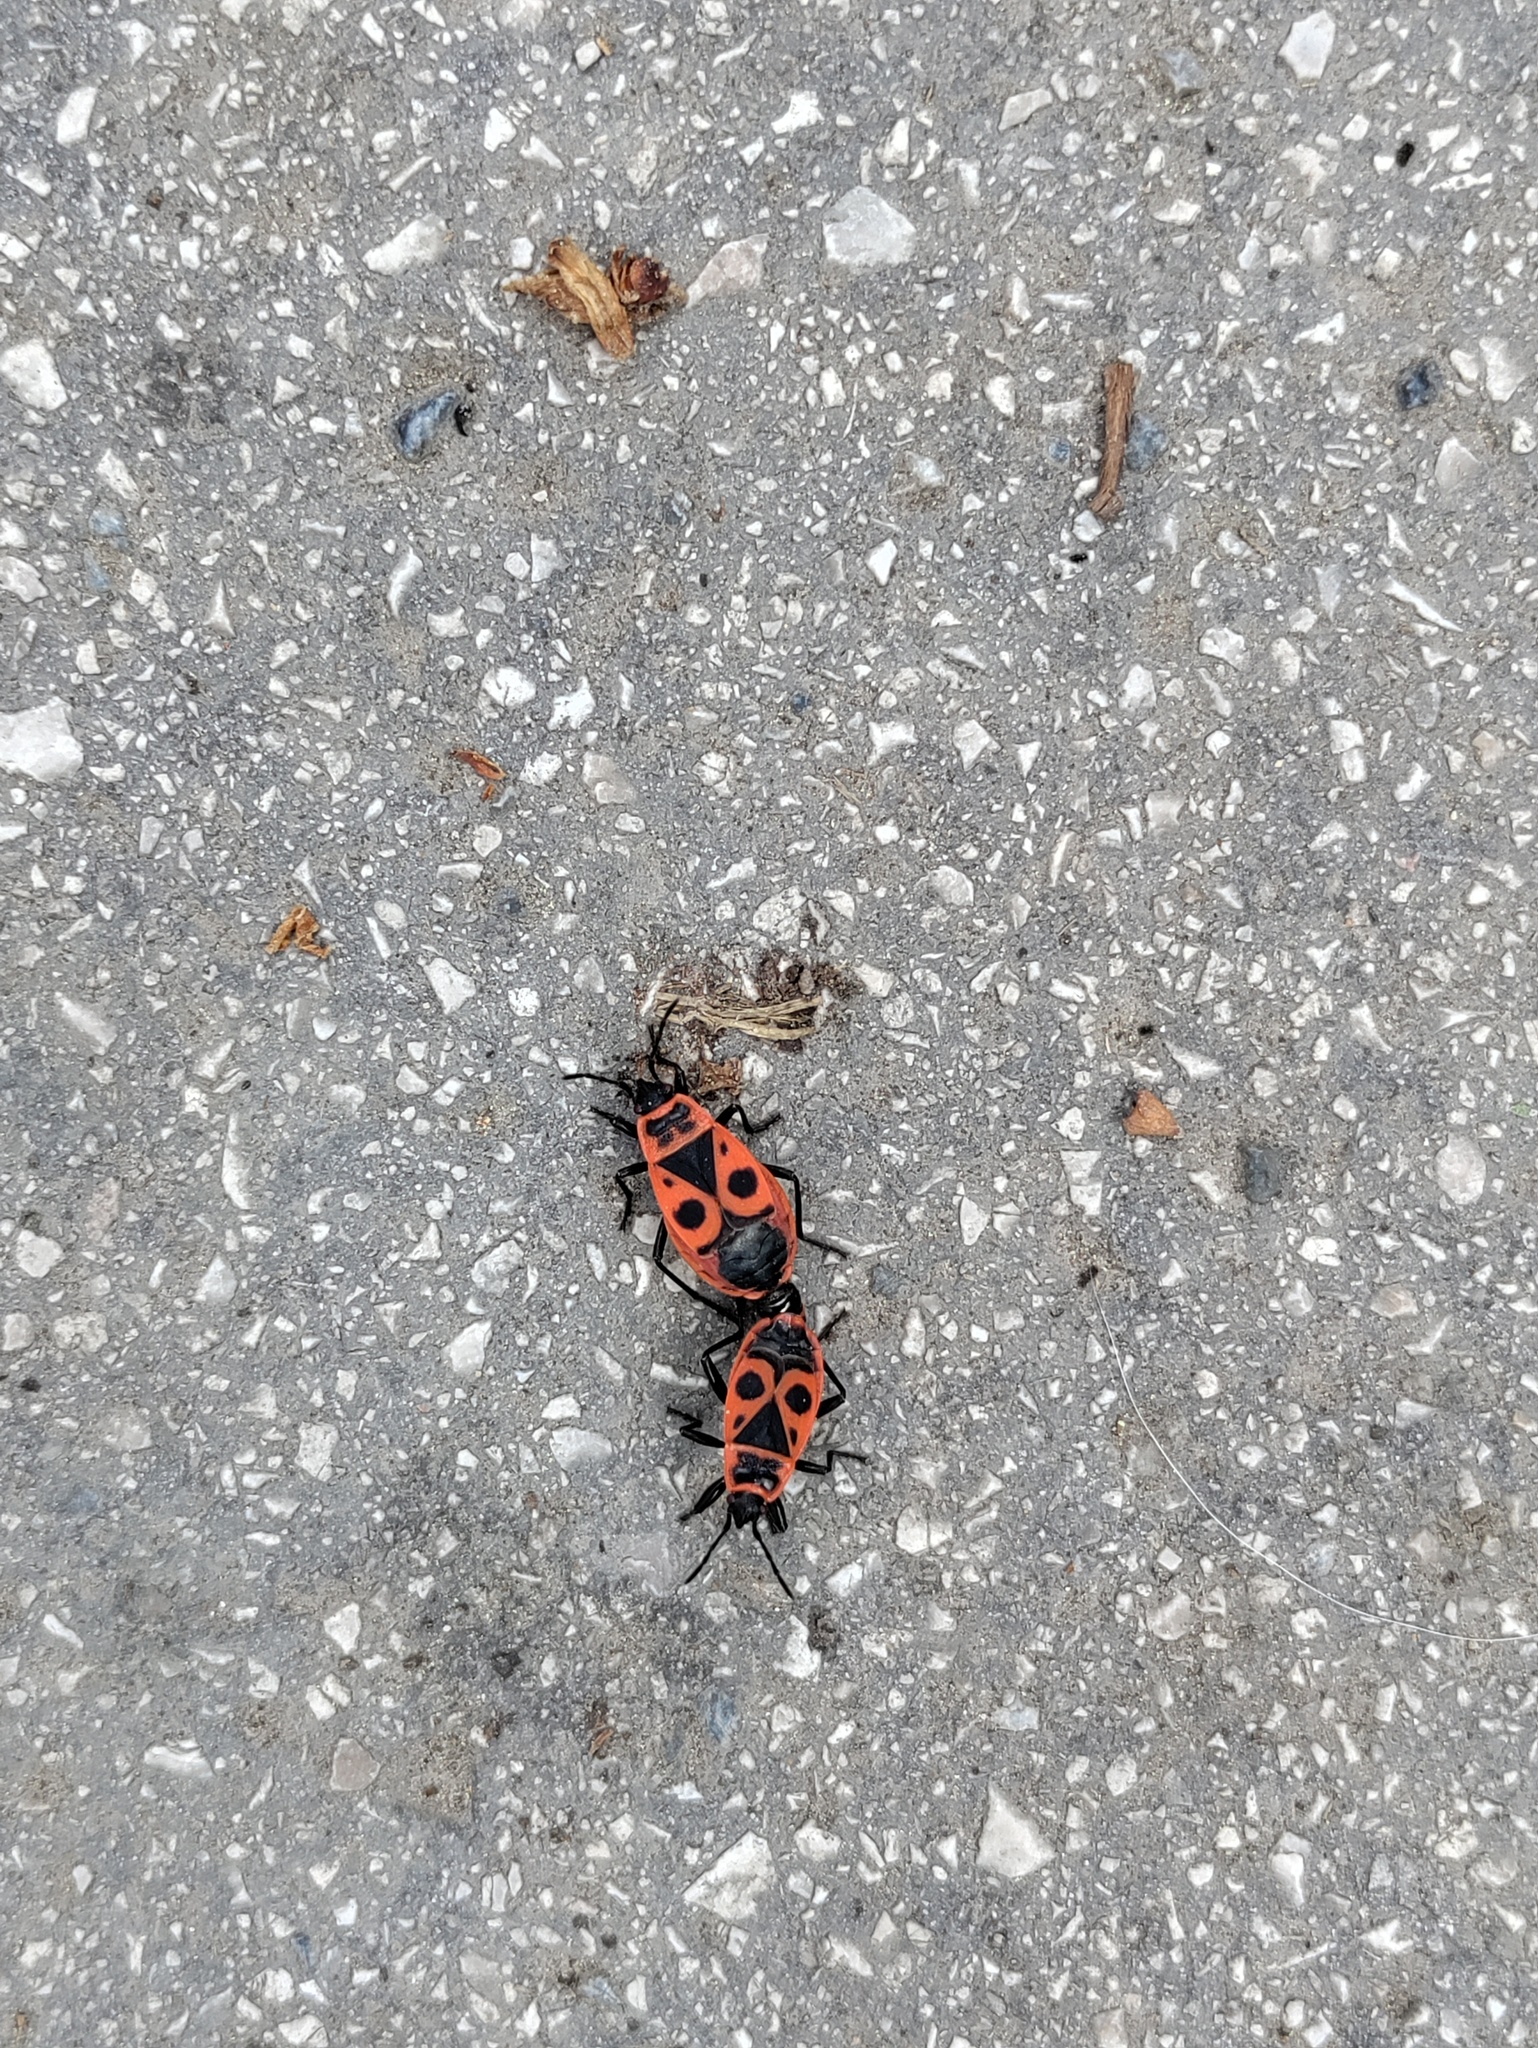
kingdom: Animalia
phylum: Arthropoda
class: Insecta
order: Hemiptera
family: Pyrrhocoridae
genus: Pyrrhocoris
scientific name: Pyrrhocoris apterus
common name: Firebug
